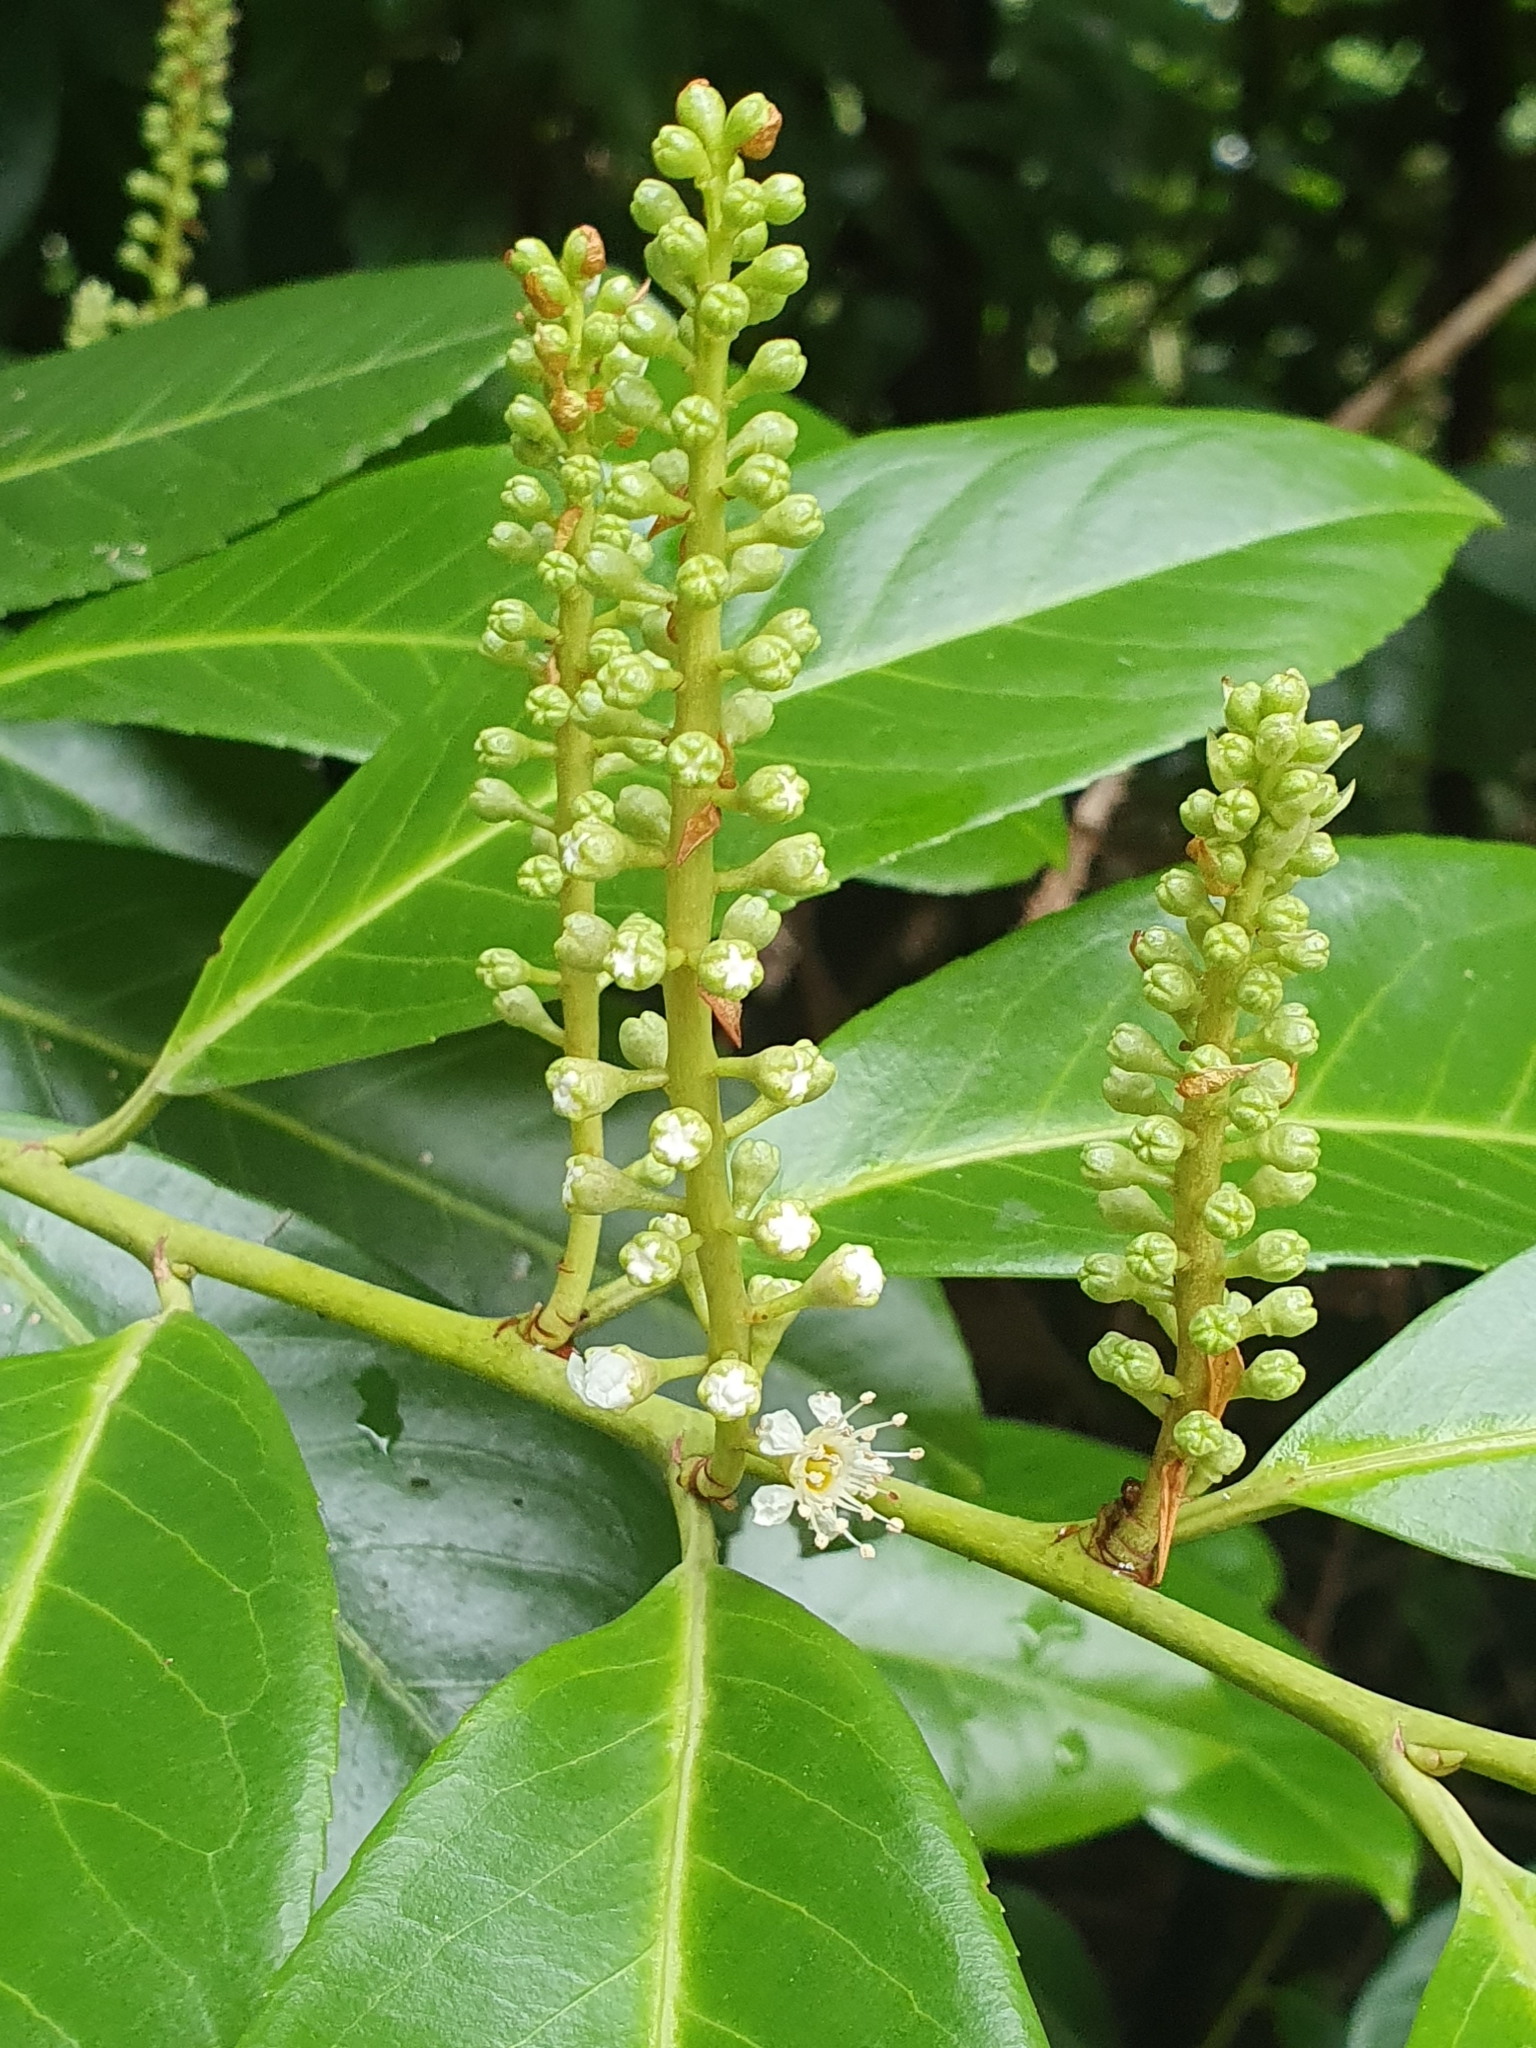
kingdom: Plantae
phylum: Tracheophyta
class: Magnoliopsida
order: Rosales
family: Rosaceae
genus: Prunus
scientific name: Prunus laurocerasus
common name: Cherry laurel
